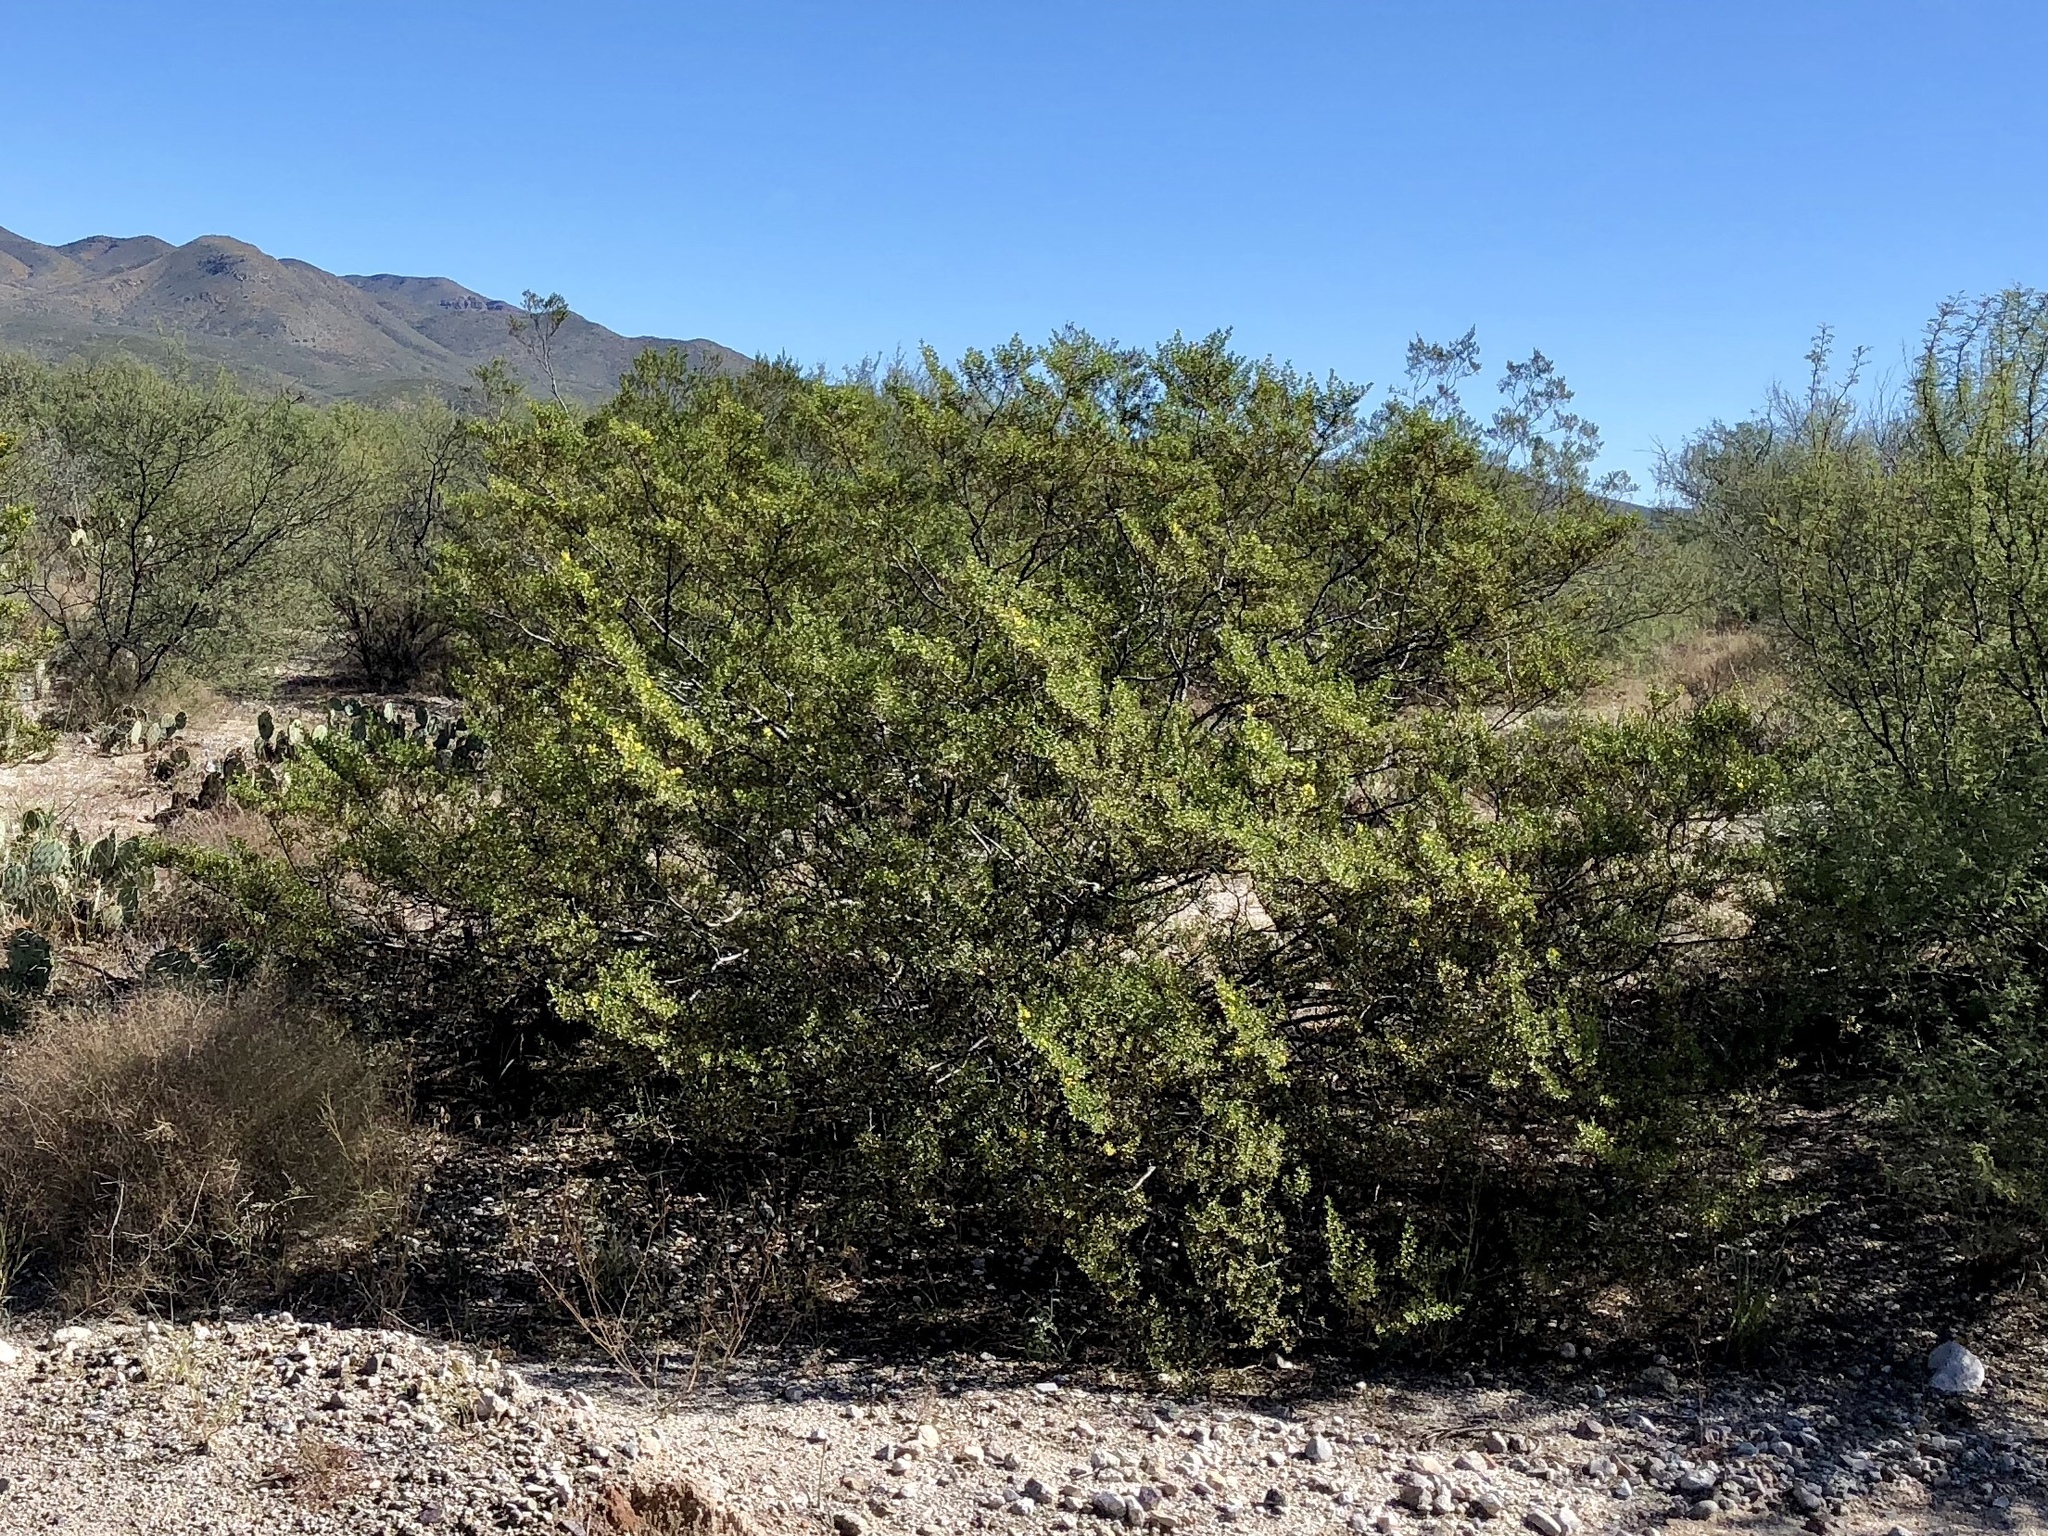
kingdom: Plantae
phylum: Tracheophyta
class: Magnoliopsida
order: Zygophyllales
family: Zygophyllaceae
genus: Larrea
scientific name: Larrea tridentata
